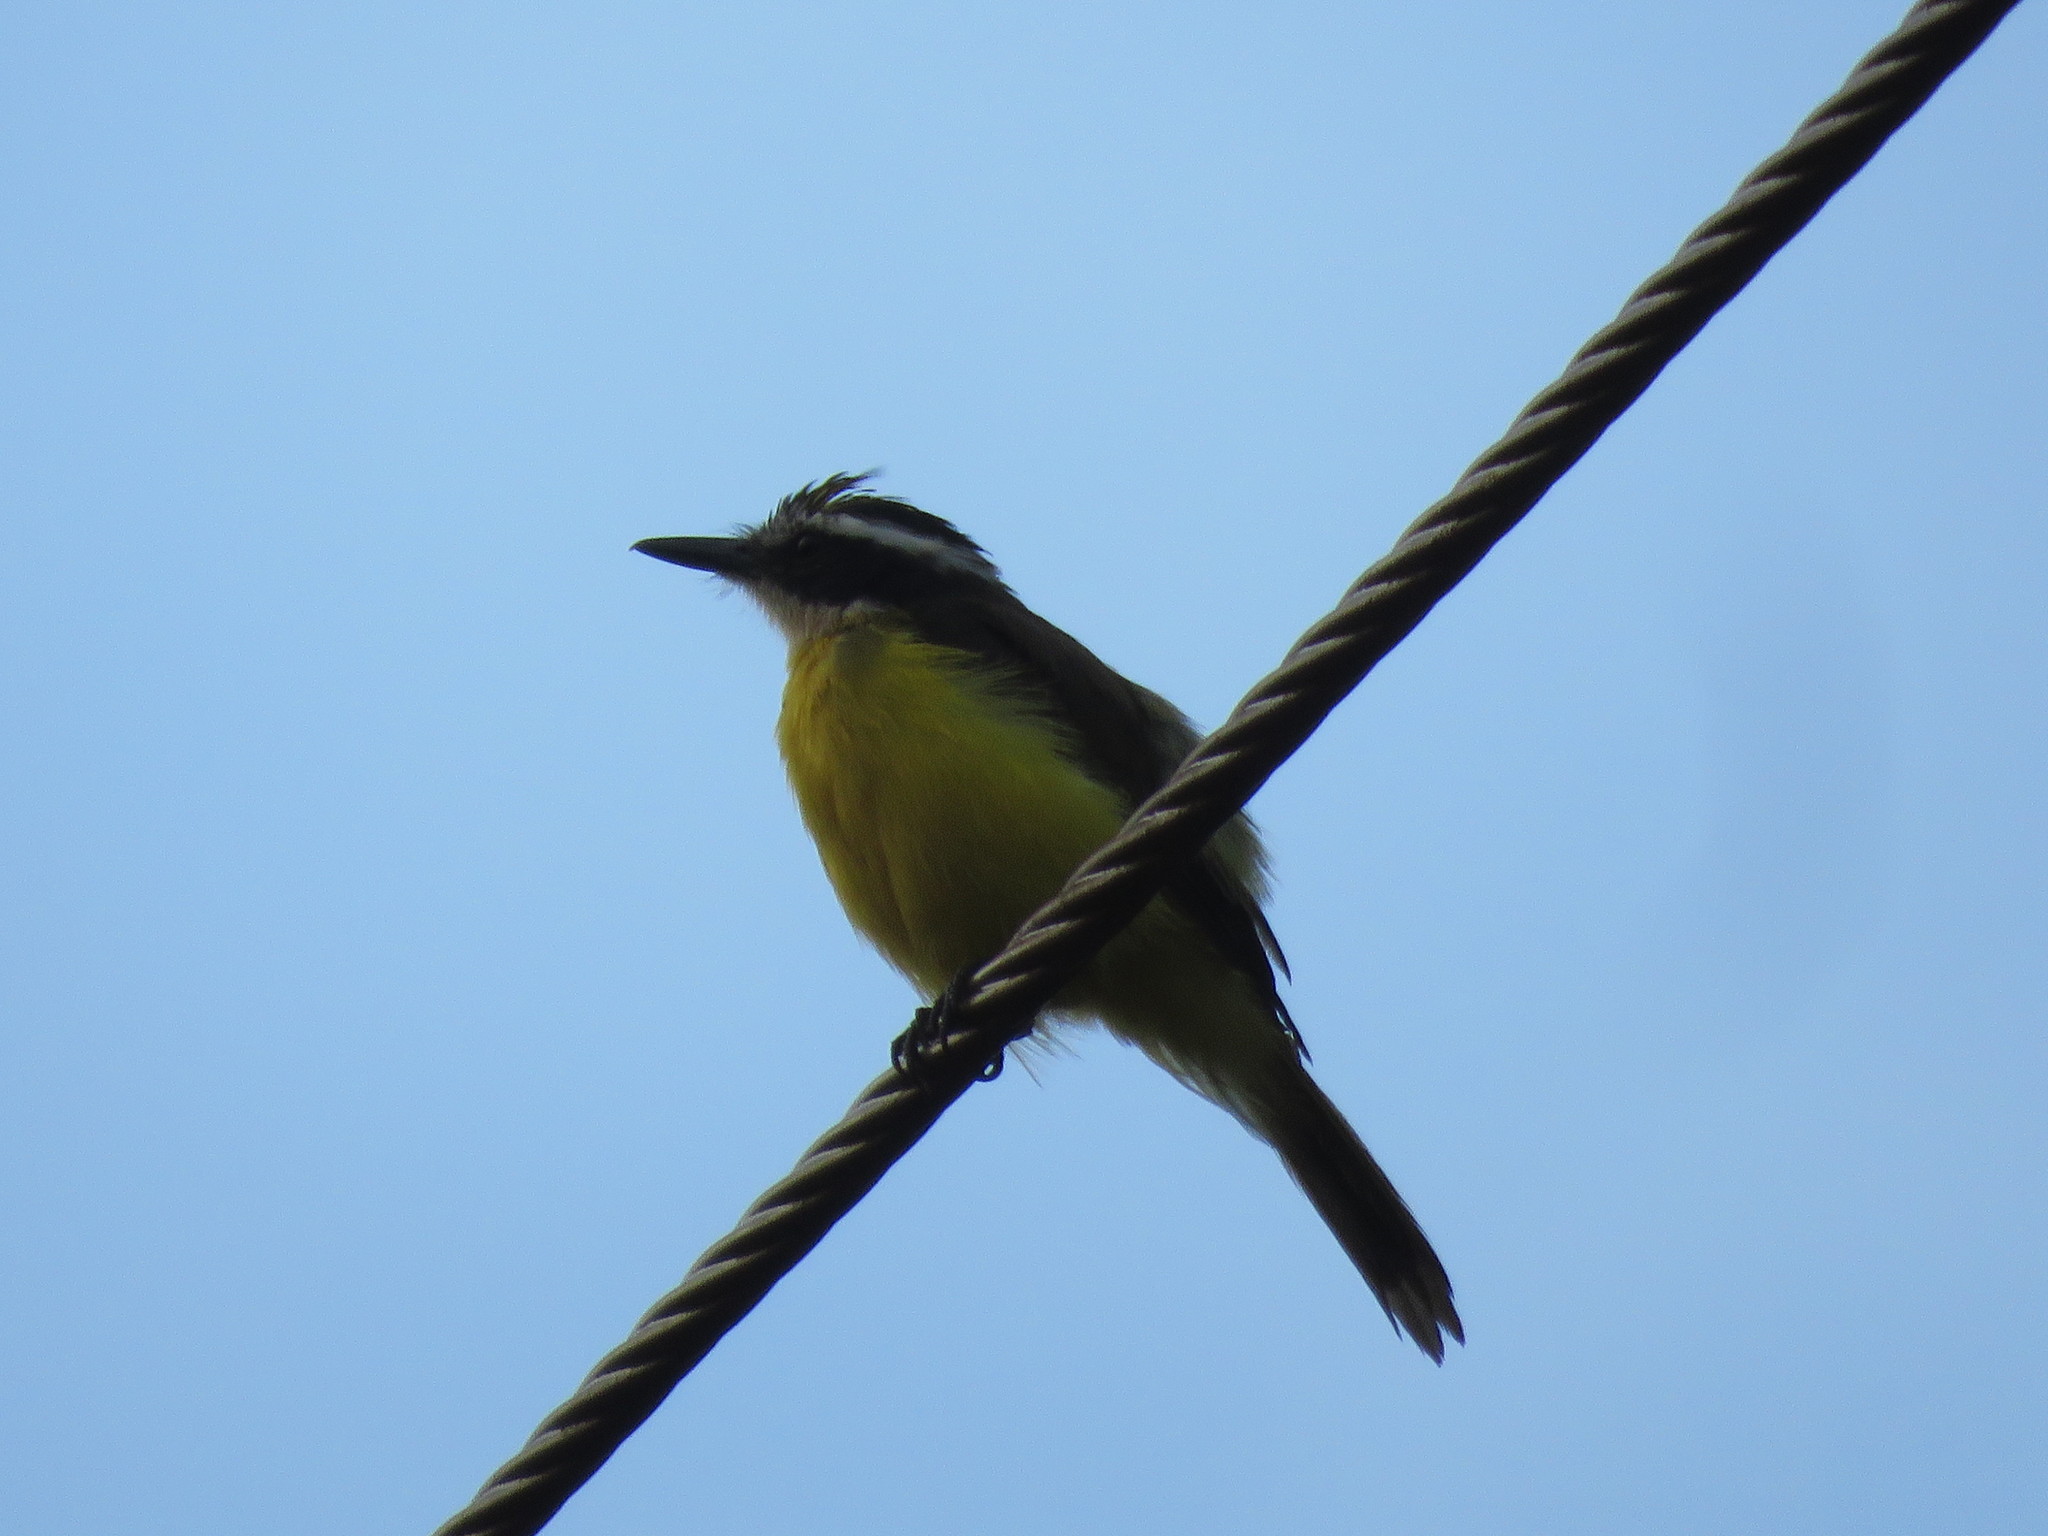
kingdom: Animalia
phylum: Chordata
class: Aves
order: Passeriformes
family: Tyrannidae
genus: Pitangus
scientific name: Pitangus lictor
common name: Lesser kiskadee
